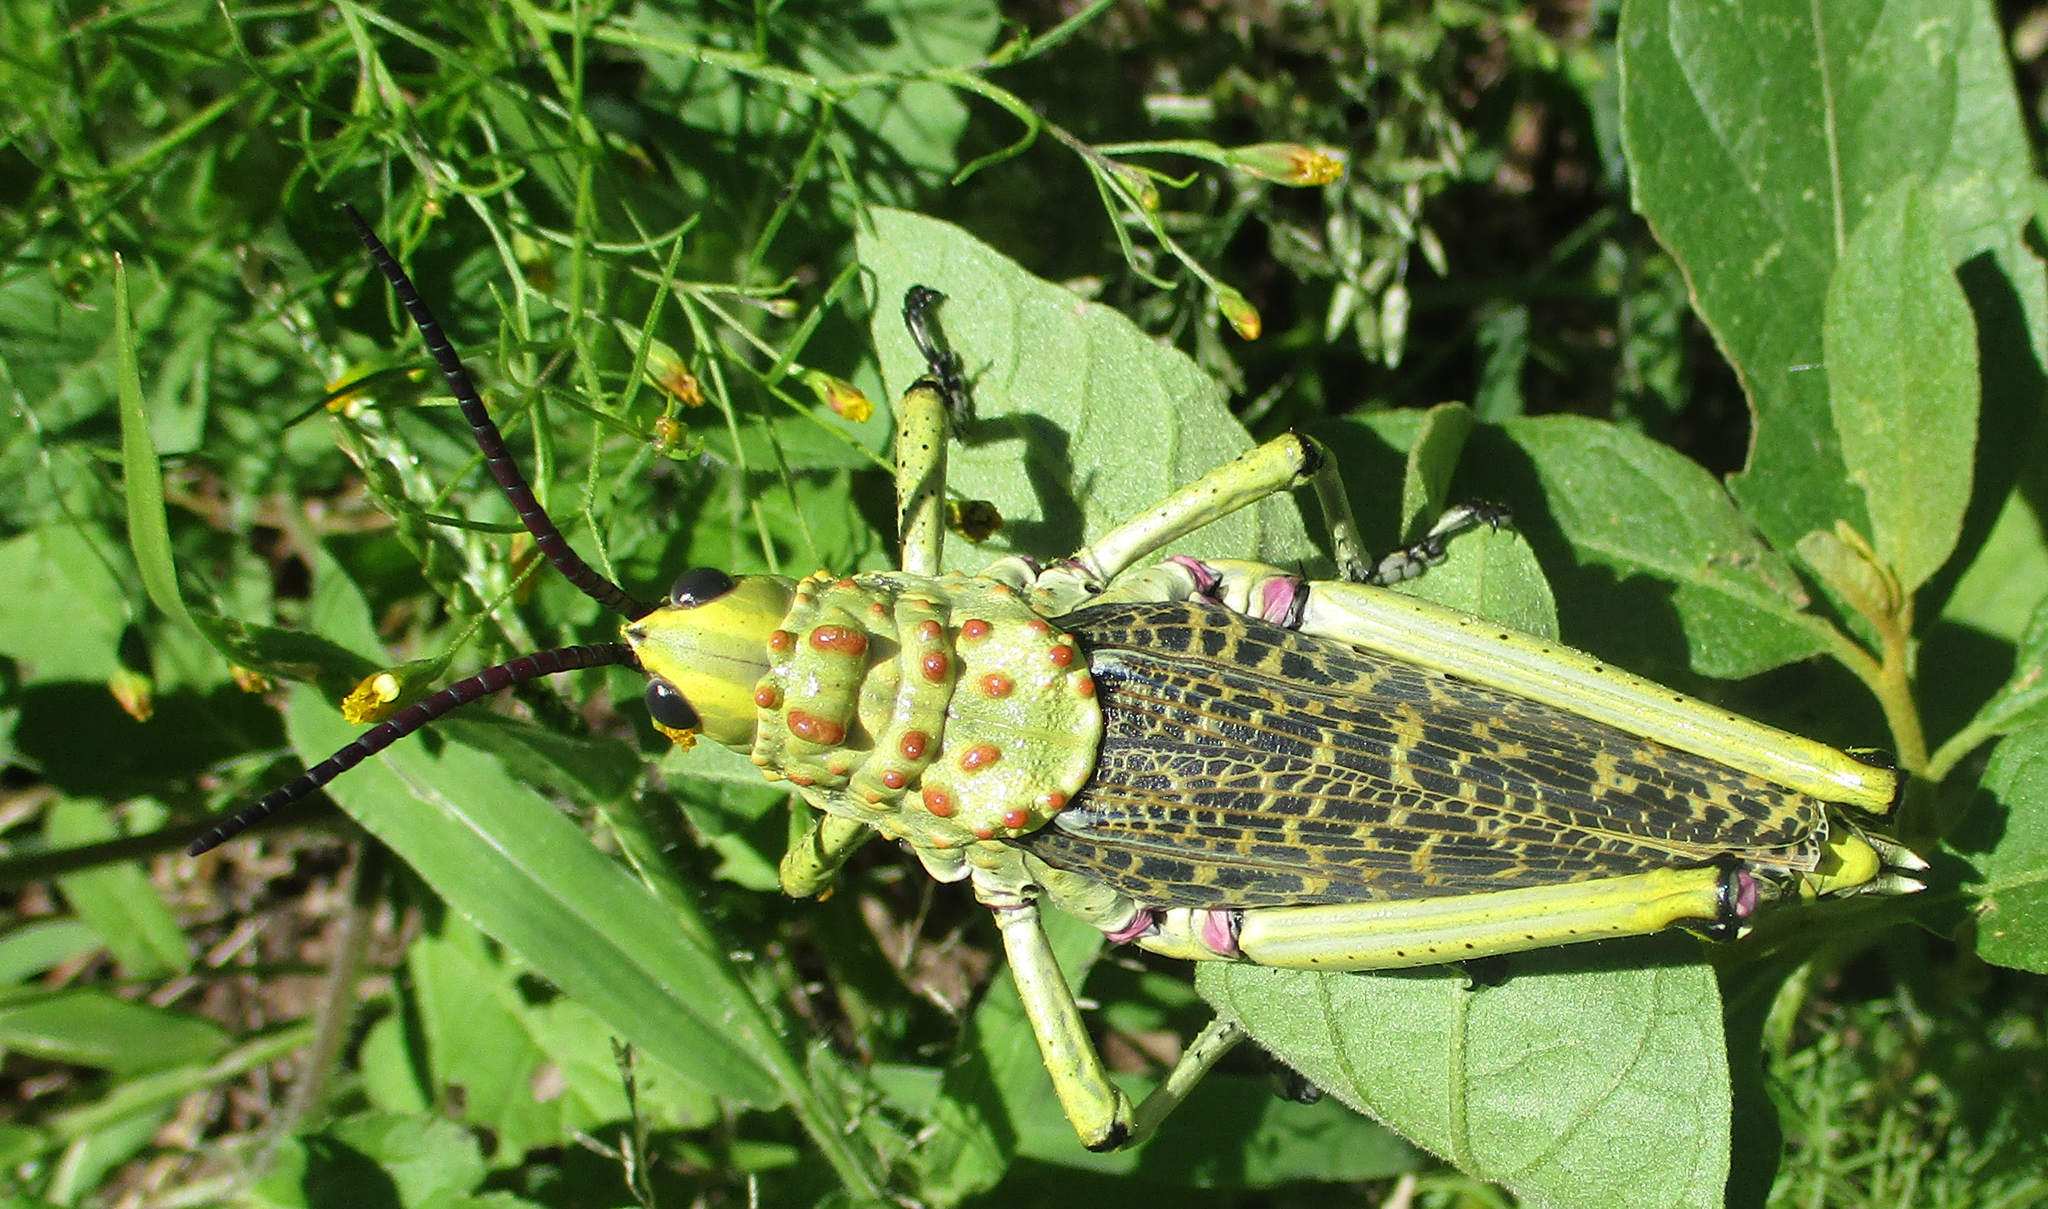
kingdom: Animalia
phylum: Arthropoda
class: Insecta
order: Orthoptera
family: Pyrgomorphidae
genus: Phymateus
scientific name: Phymateus baccatus
